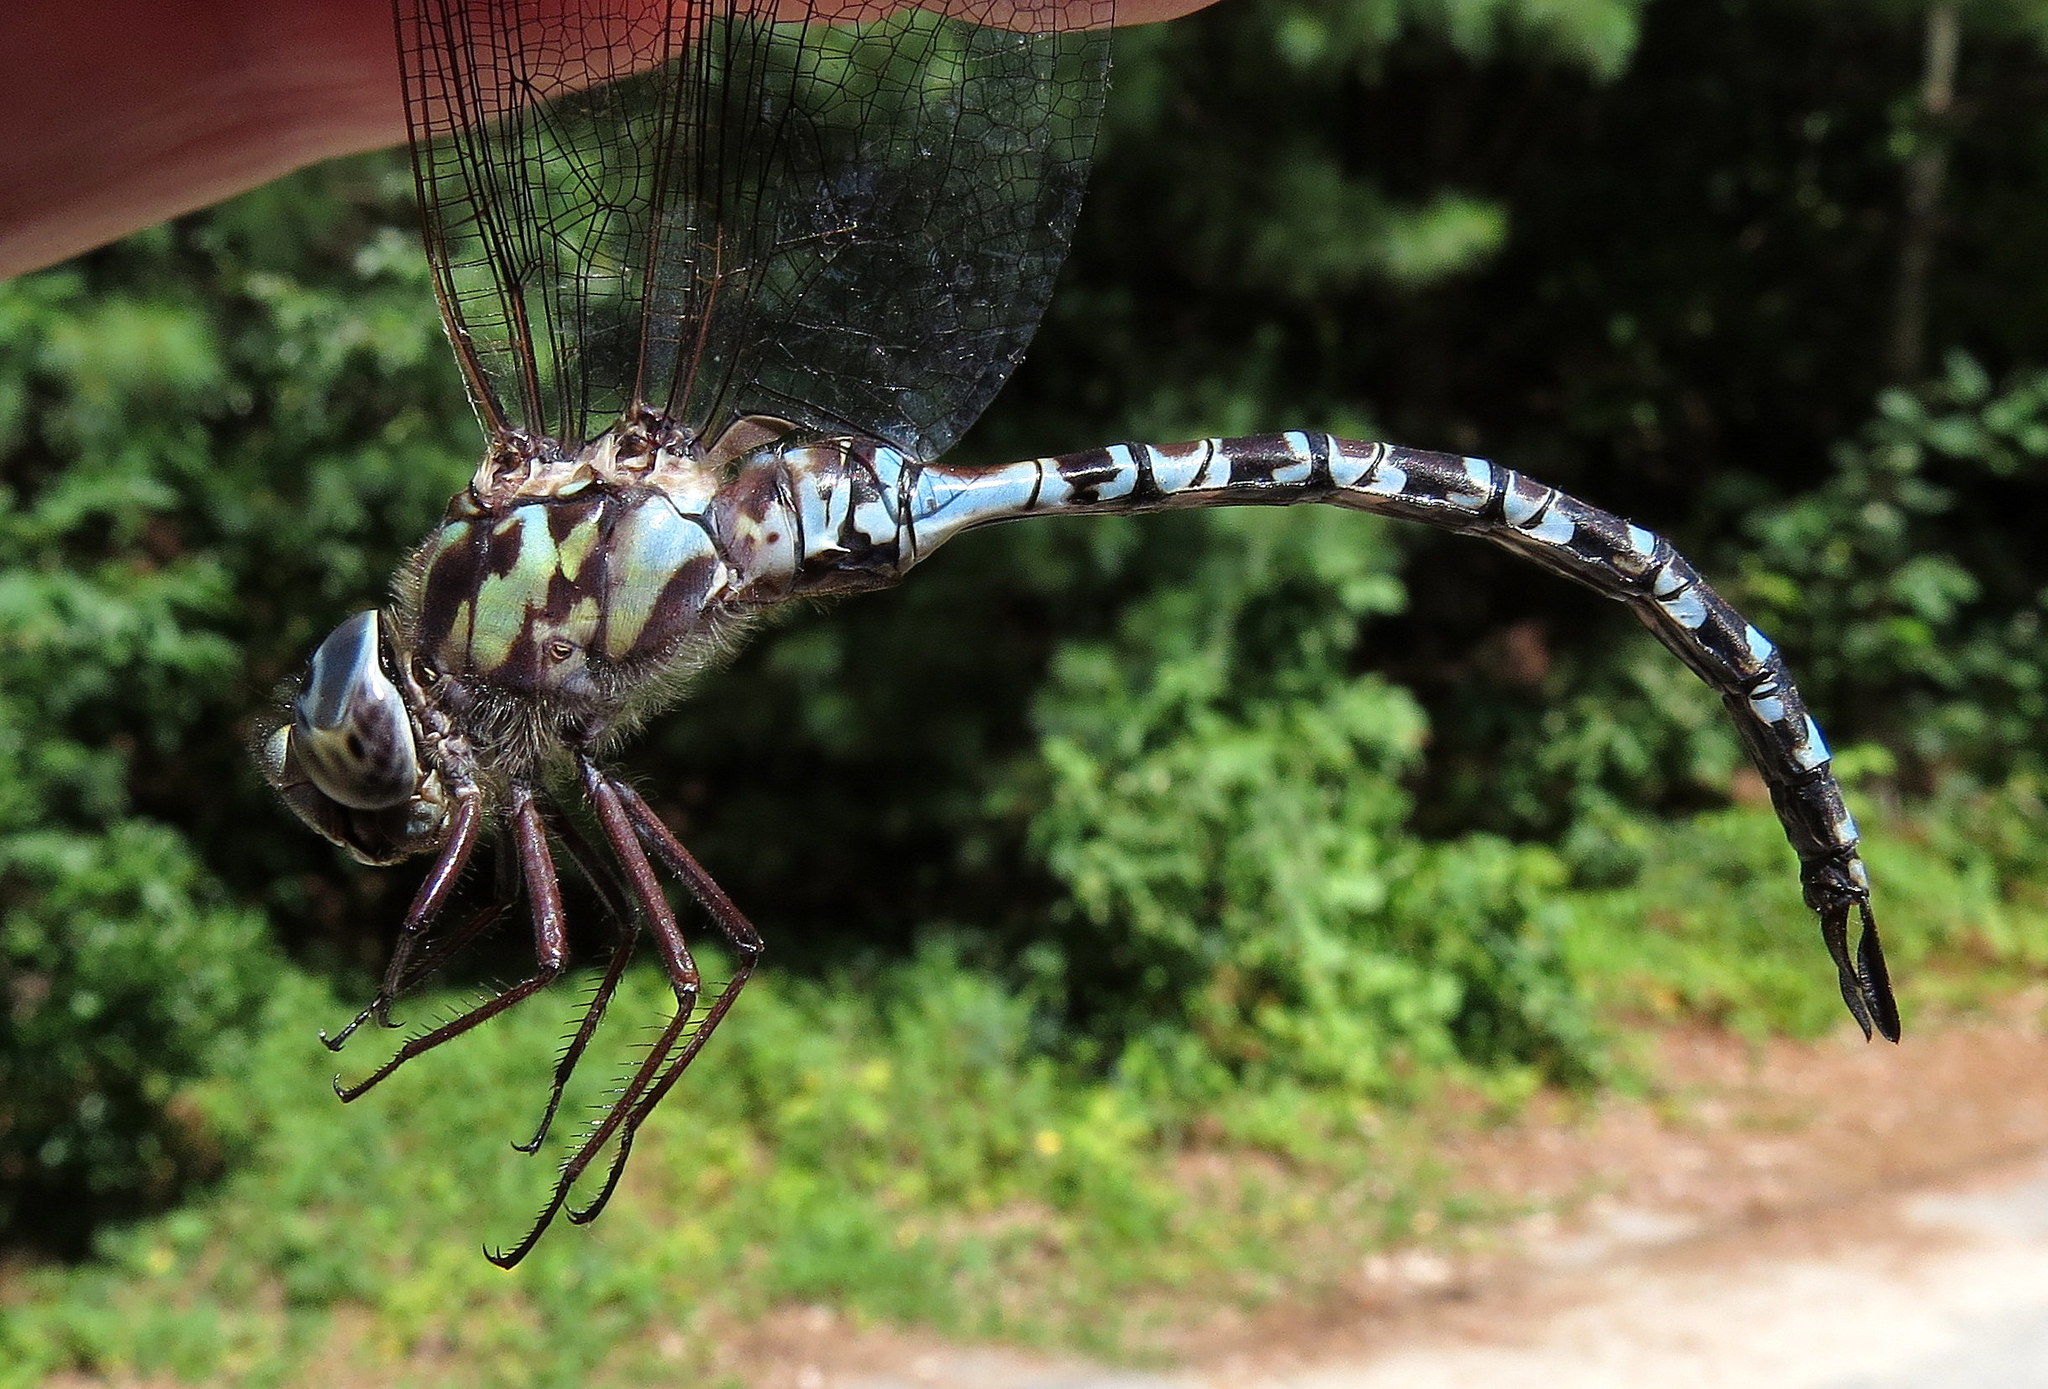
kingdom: Animalia
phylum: Arthropoda
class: Insecta
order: Odonata
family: Aeshnidae
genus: Aeshna
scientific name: Aeshna clepsydra
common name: Mottled darner
